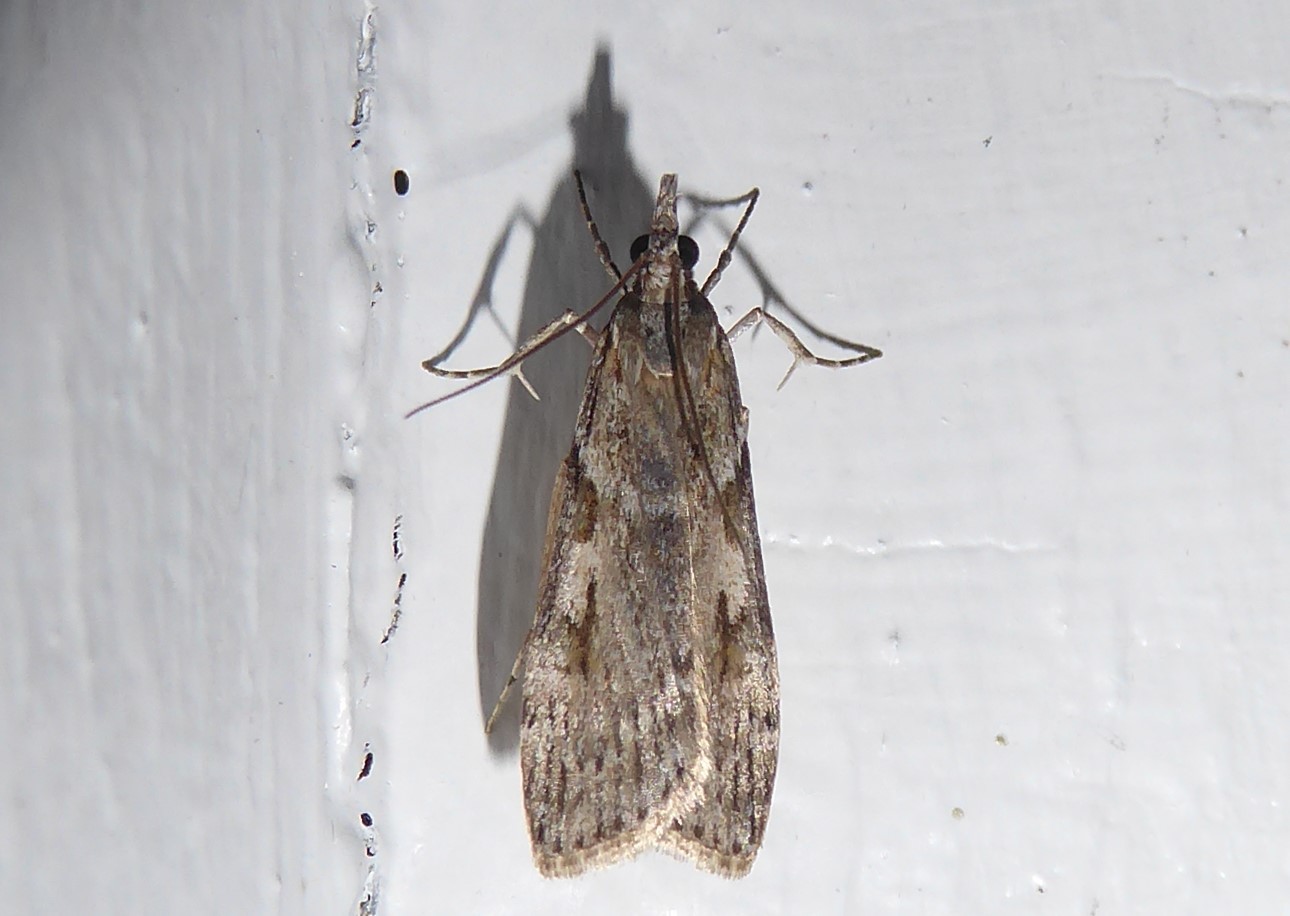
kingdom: Animalia
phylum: Arthropoda
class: Insecta
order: Lepidoptera
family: Crambidae
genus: Scoparia
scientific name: Scoparia halopis
